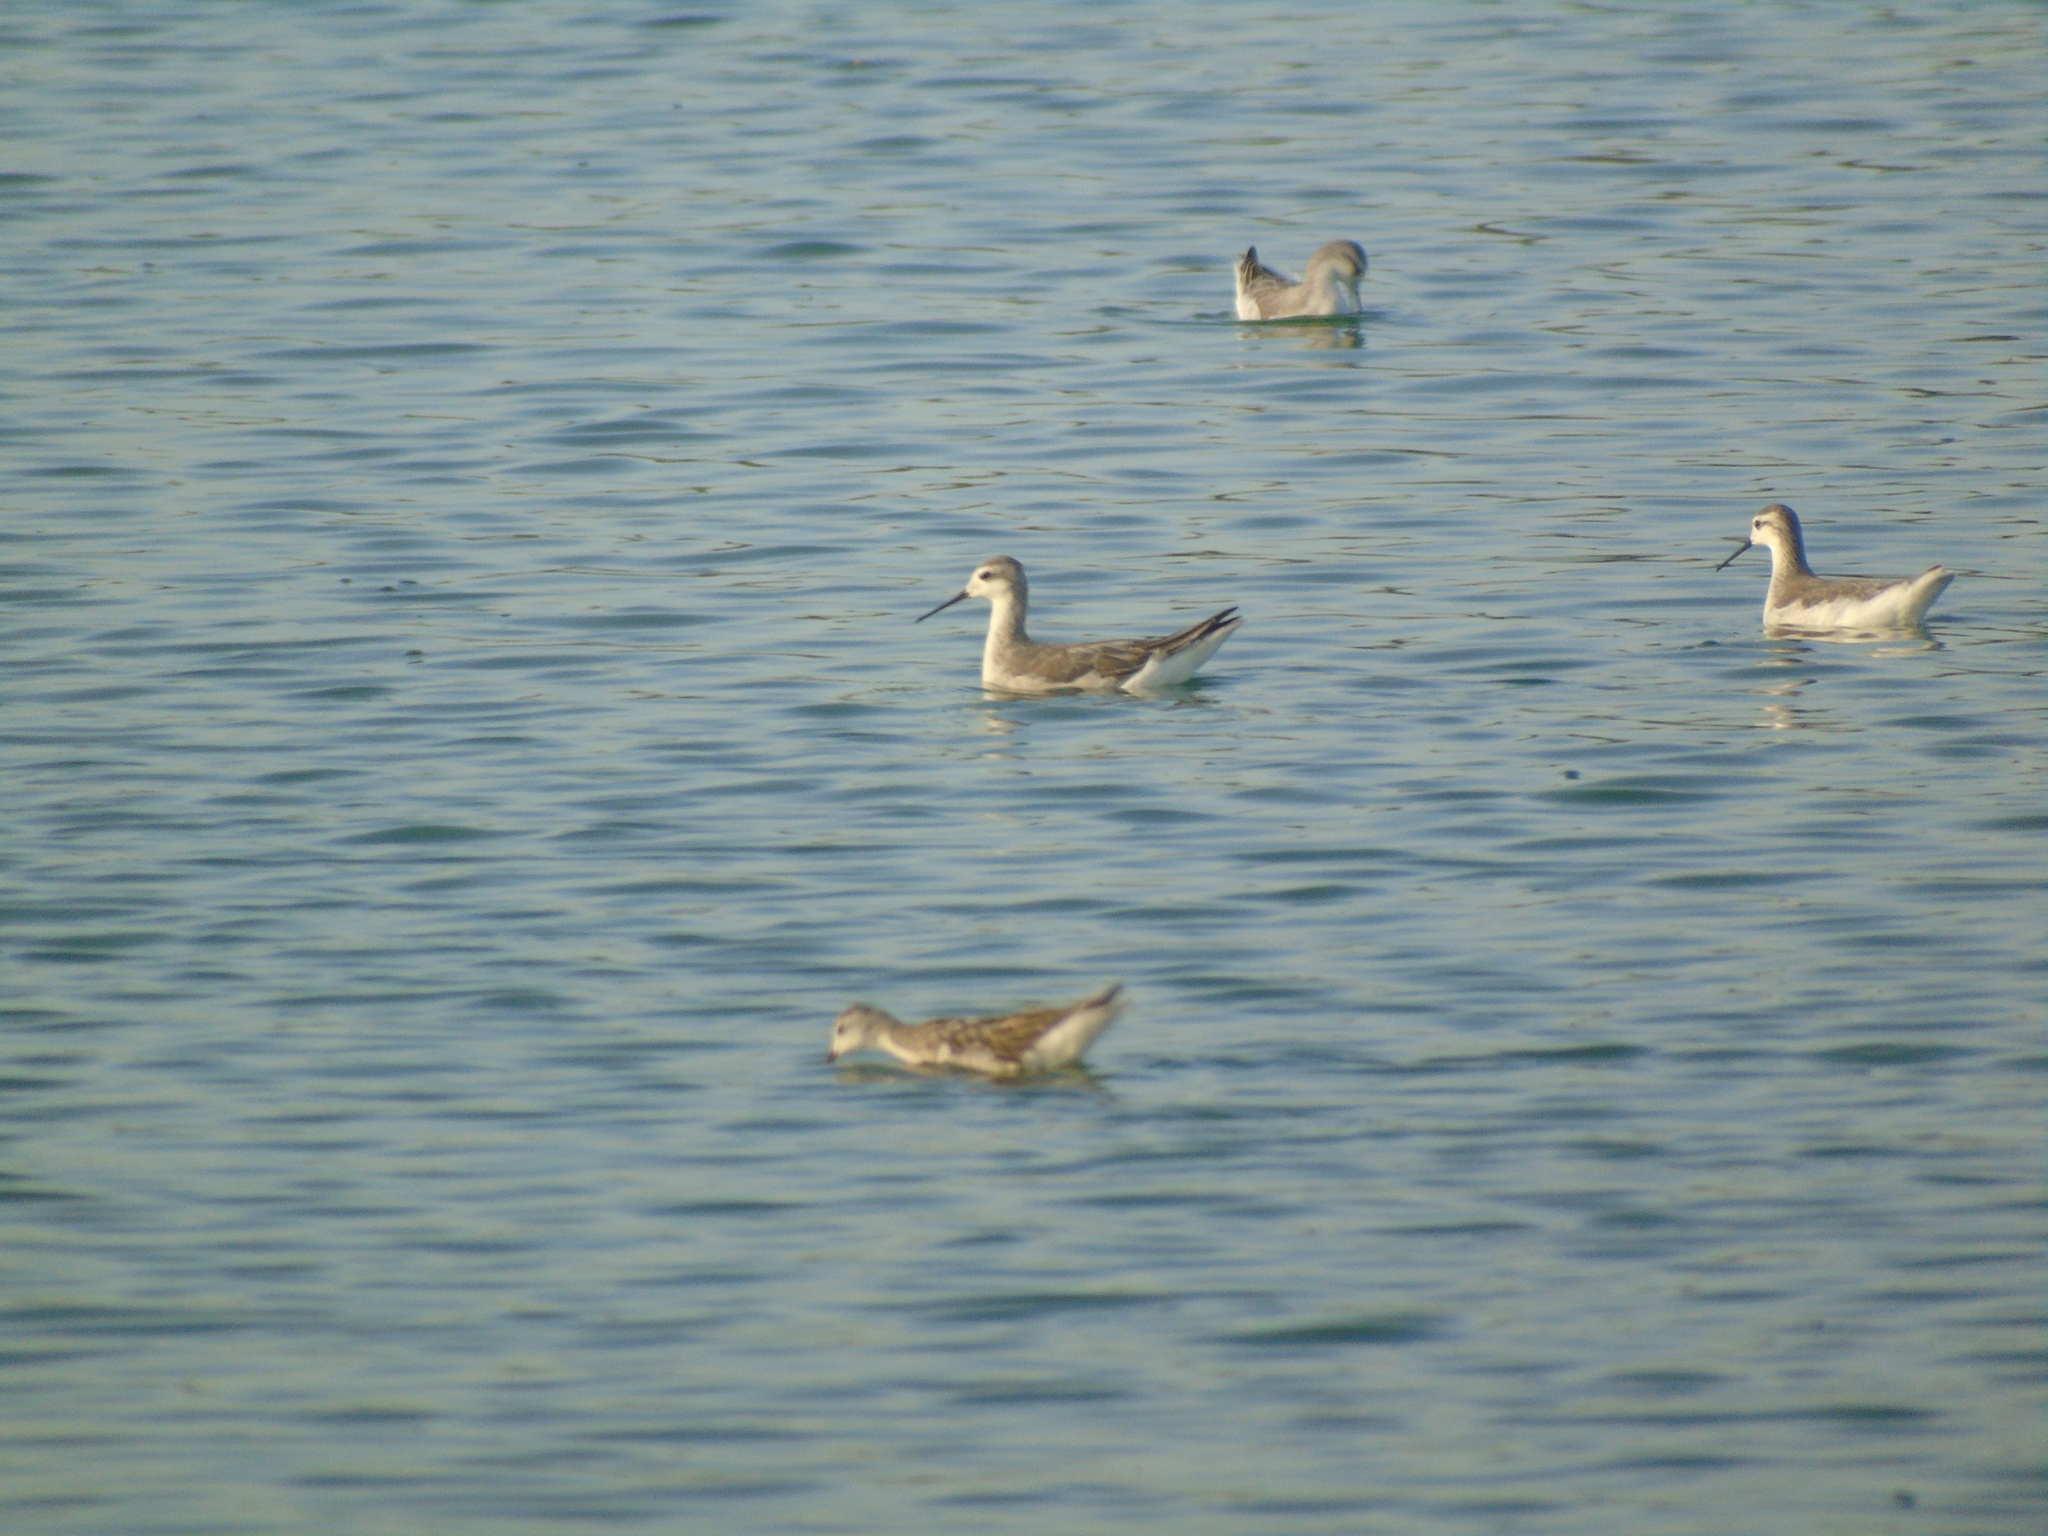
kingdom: Animalia
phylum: Chordata
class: Aves
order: Charadriiformes
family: Scolopacidae
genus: Phalaropus
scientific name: Phalaropus tricolor
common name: Wilson's phalarope
